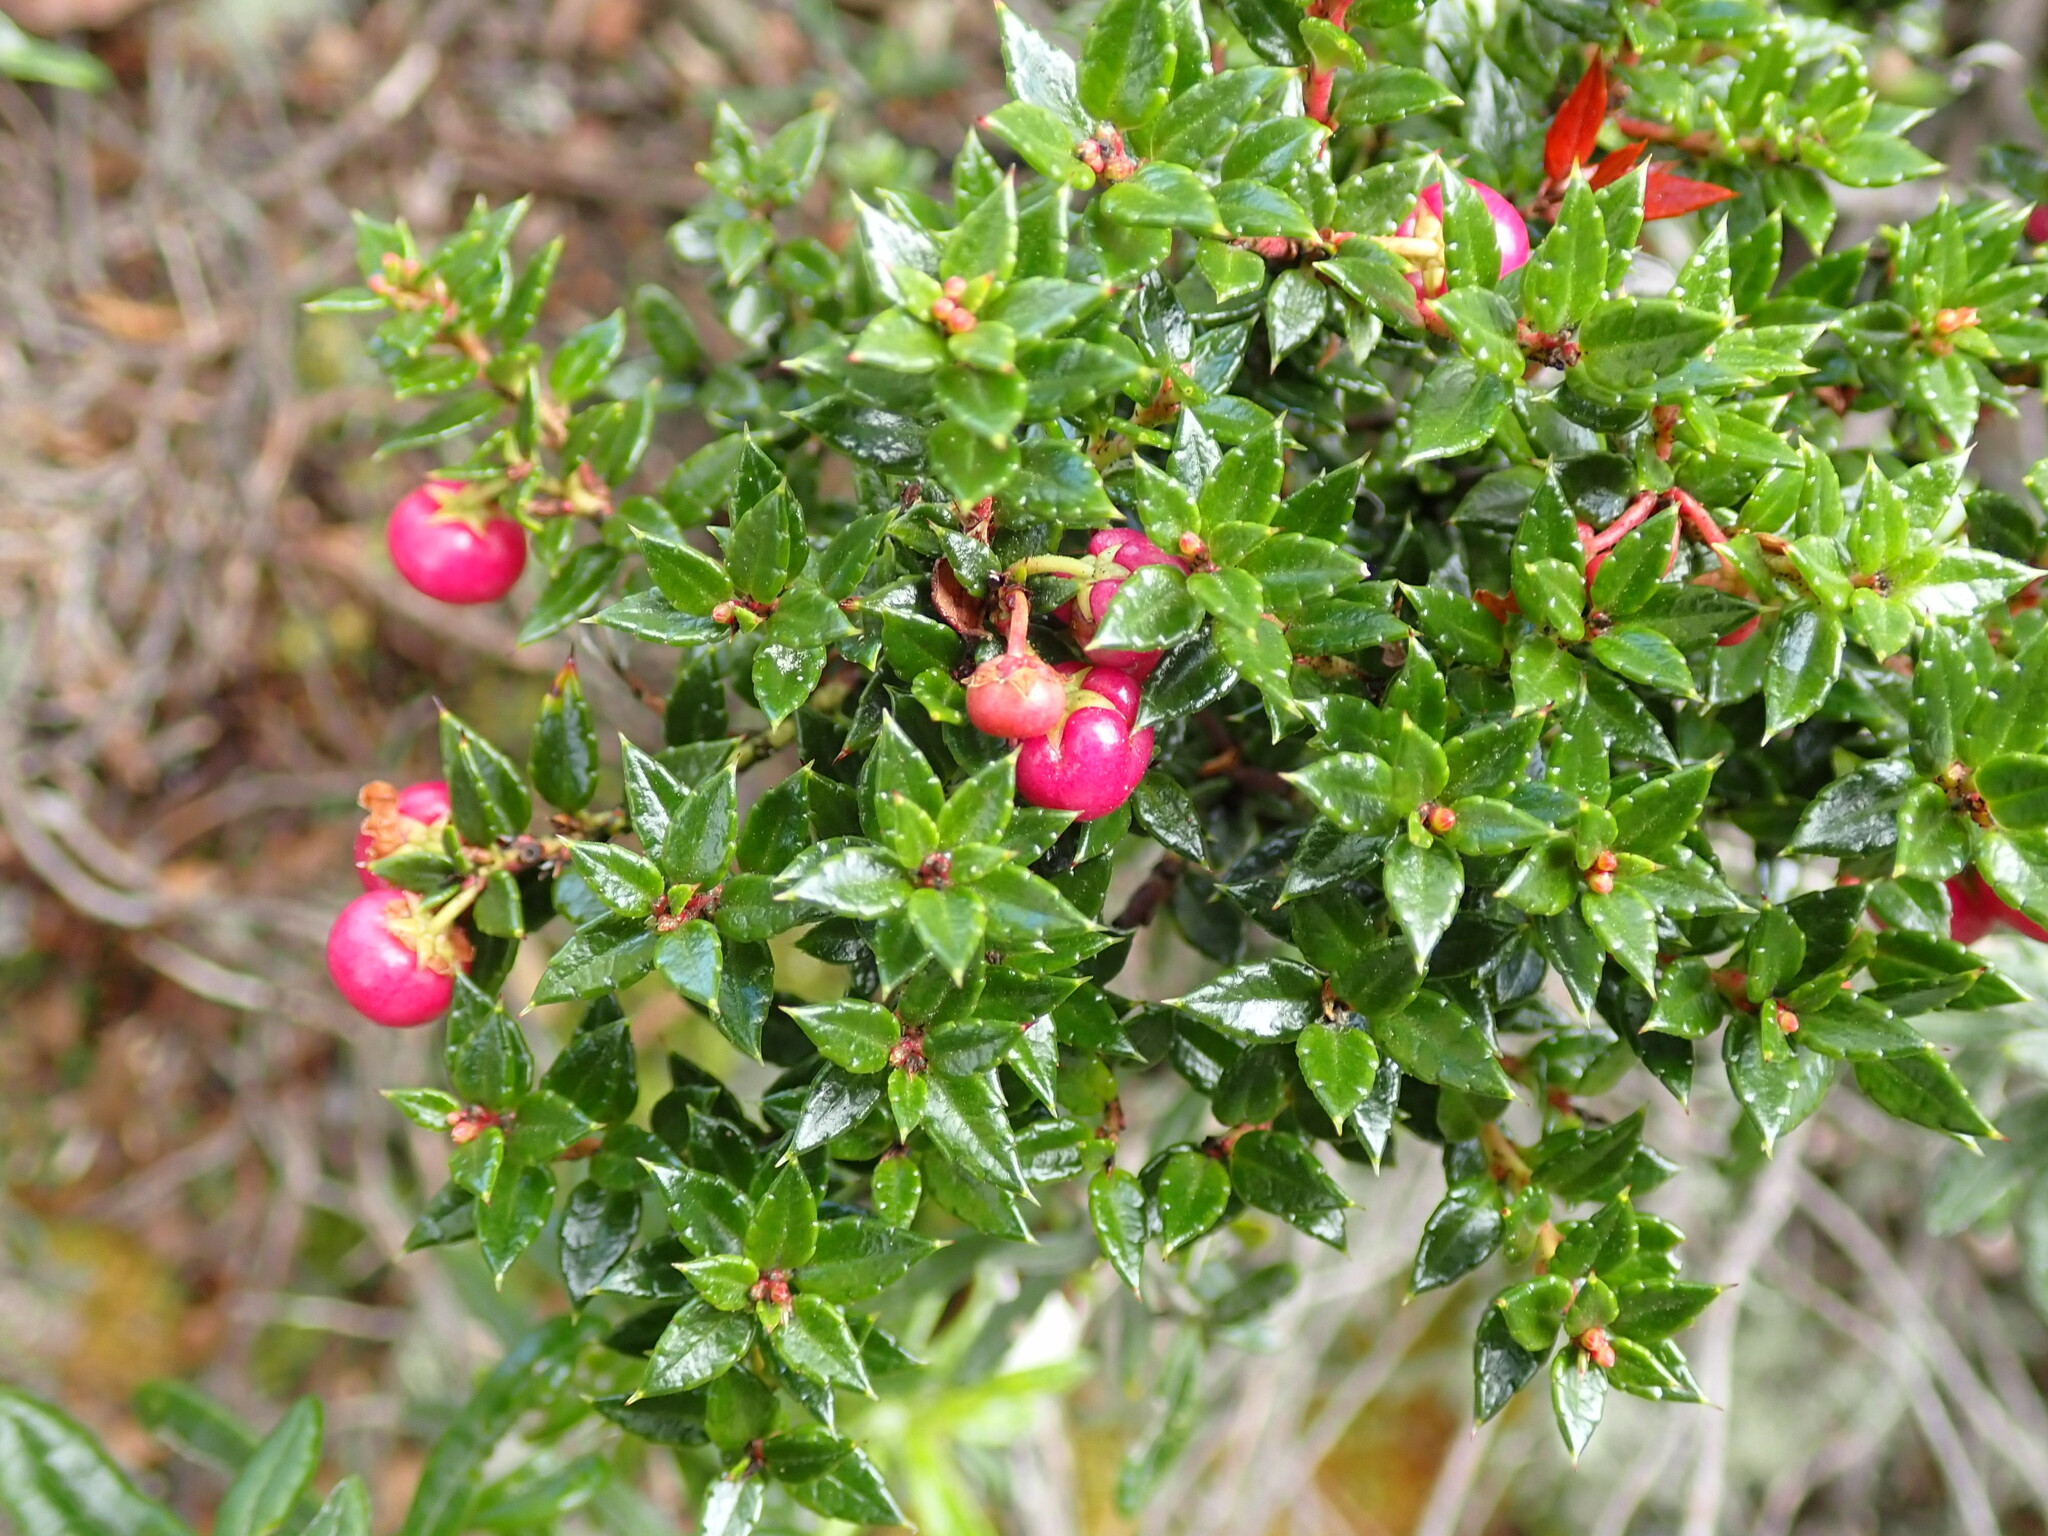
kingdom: Plantae
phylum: Tracheophyta
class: Magnoliopsida
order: Ericales
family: Ericaceae
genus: Gaultheria
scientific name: Gaultheria mucronata
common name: Prickly heath
